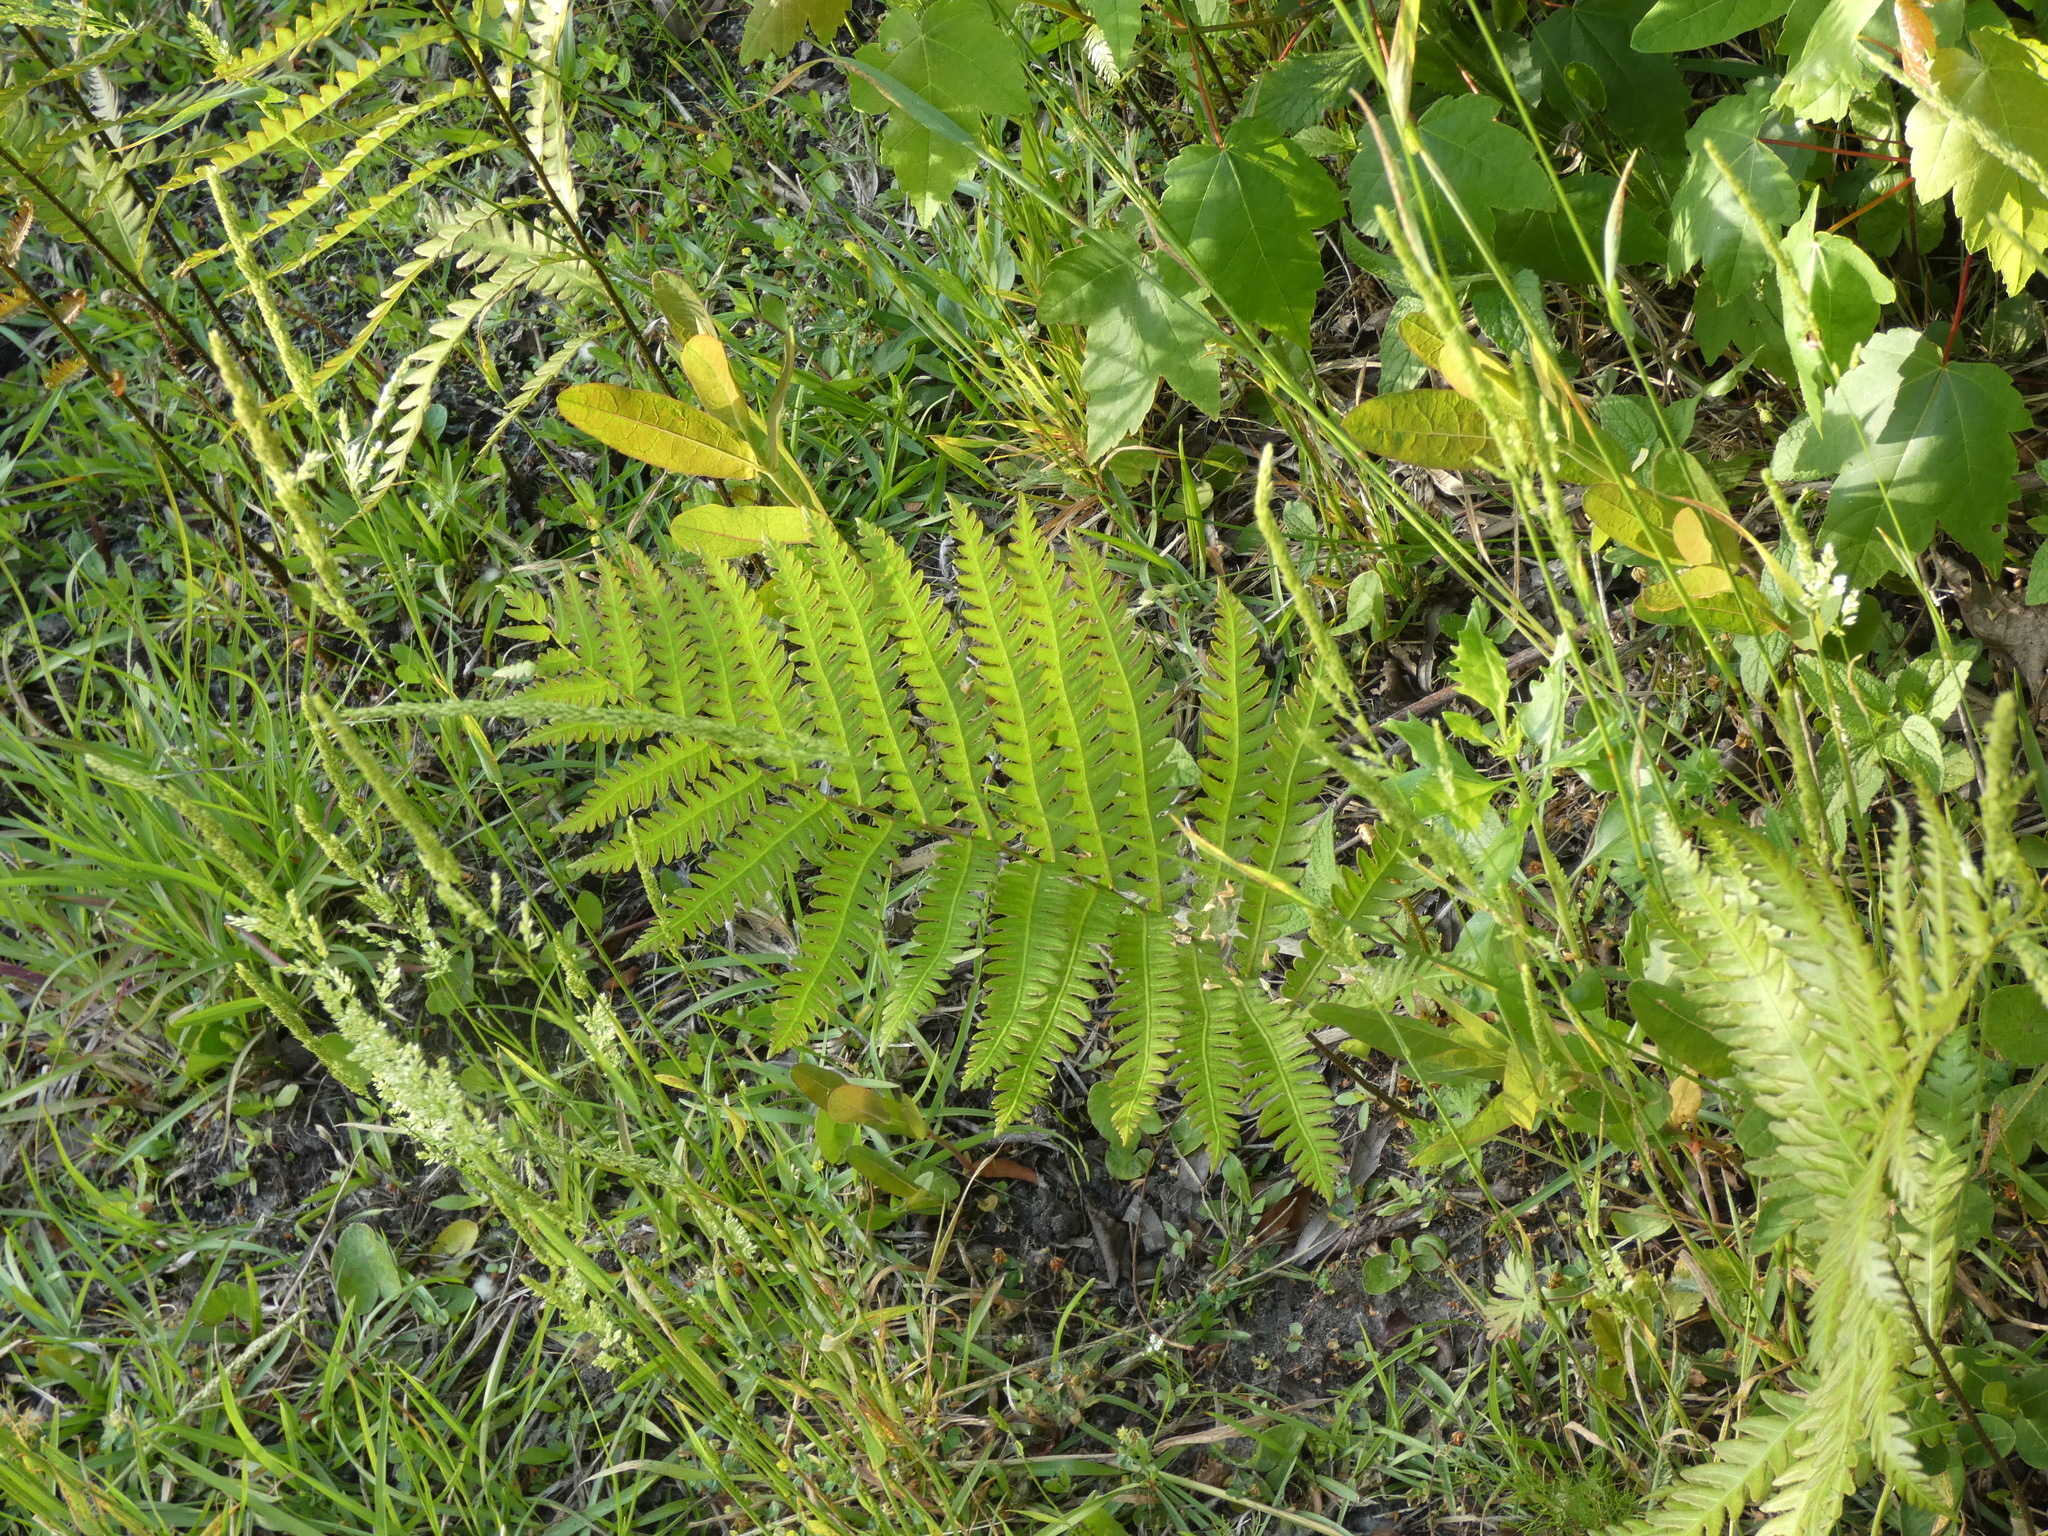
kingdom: Plantae
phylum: Tracheophyta
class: Polypodiopsida
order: Polypodiales
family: Blechnaceae
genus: Anchistea
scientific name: Anchistea virginica
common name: Virginia chain fern
